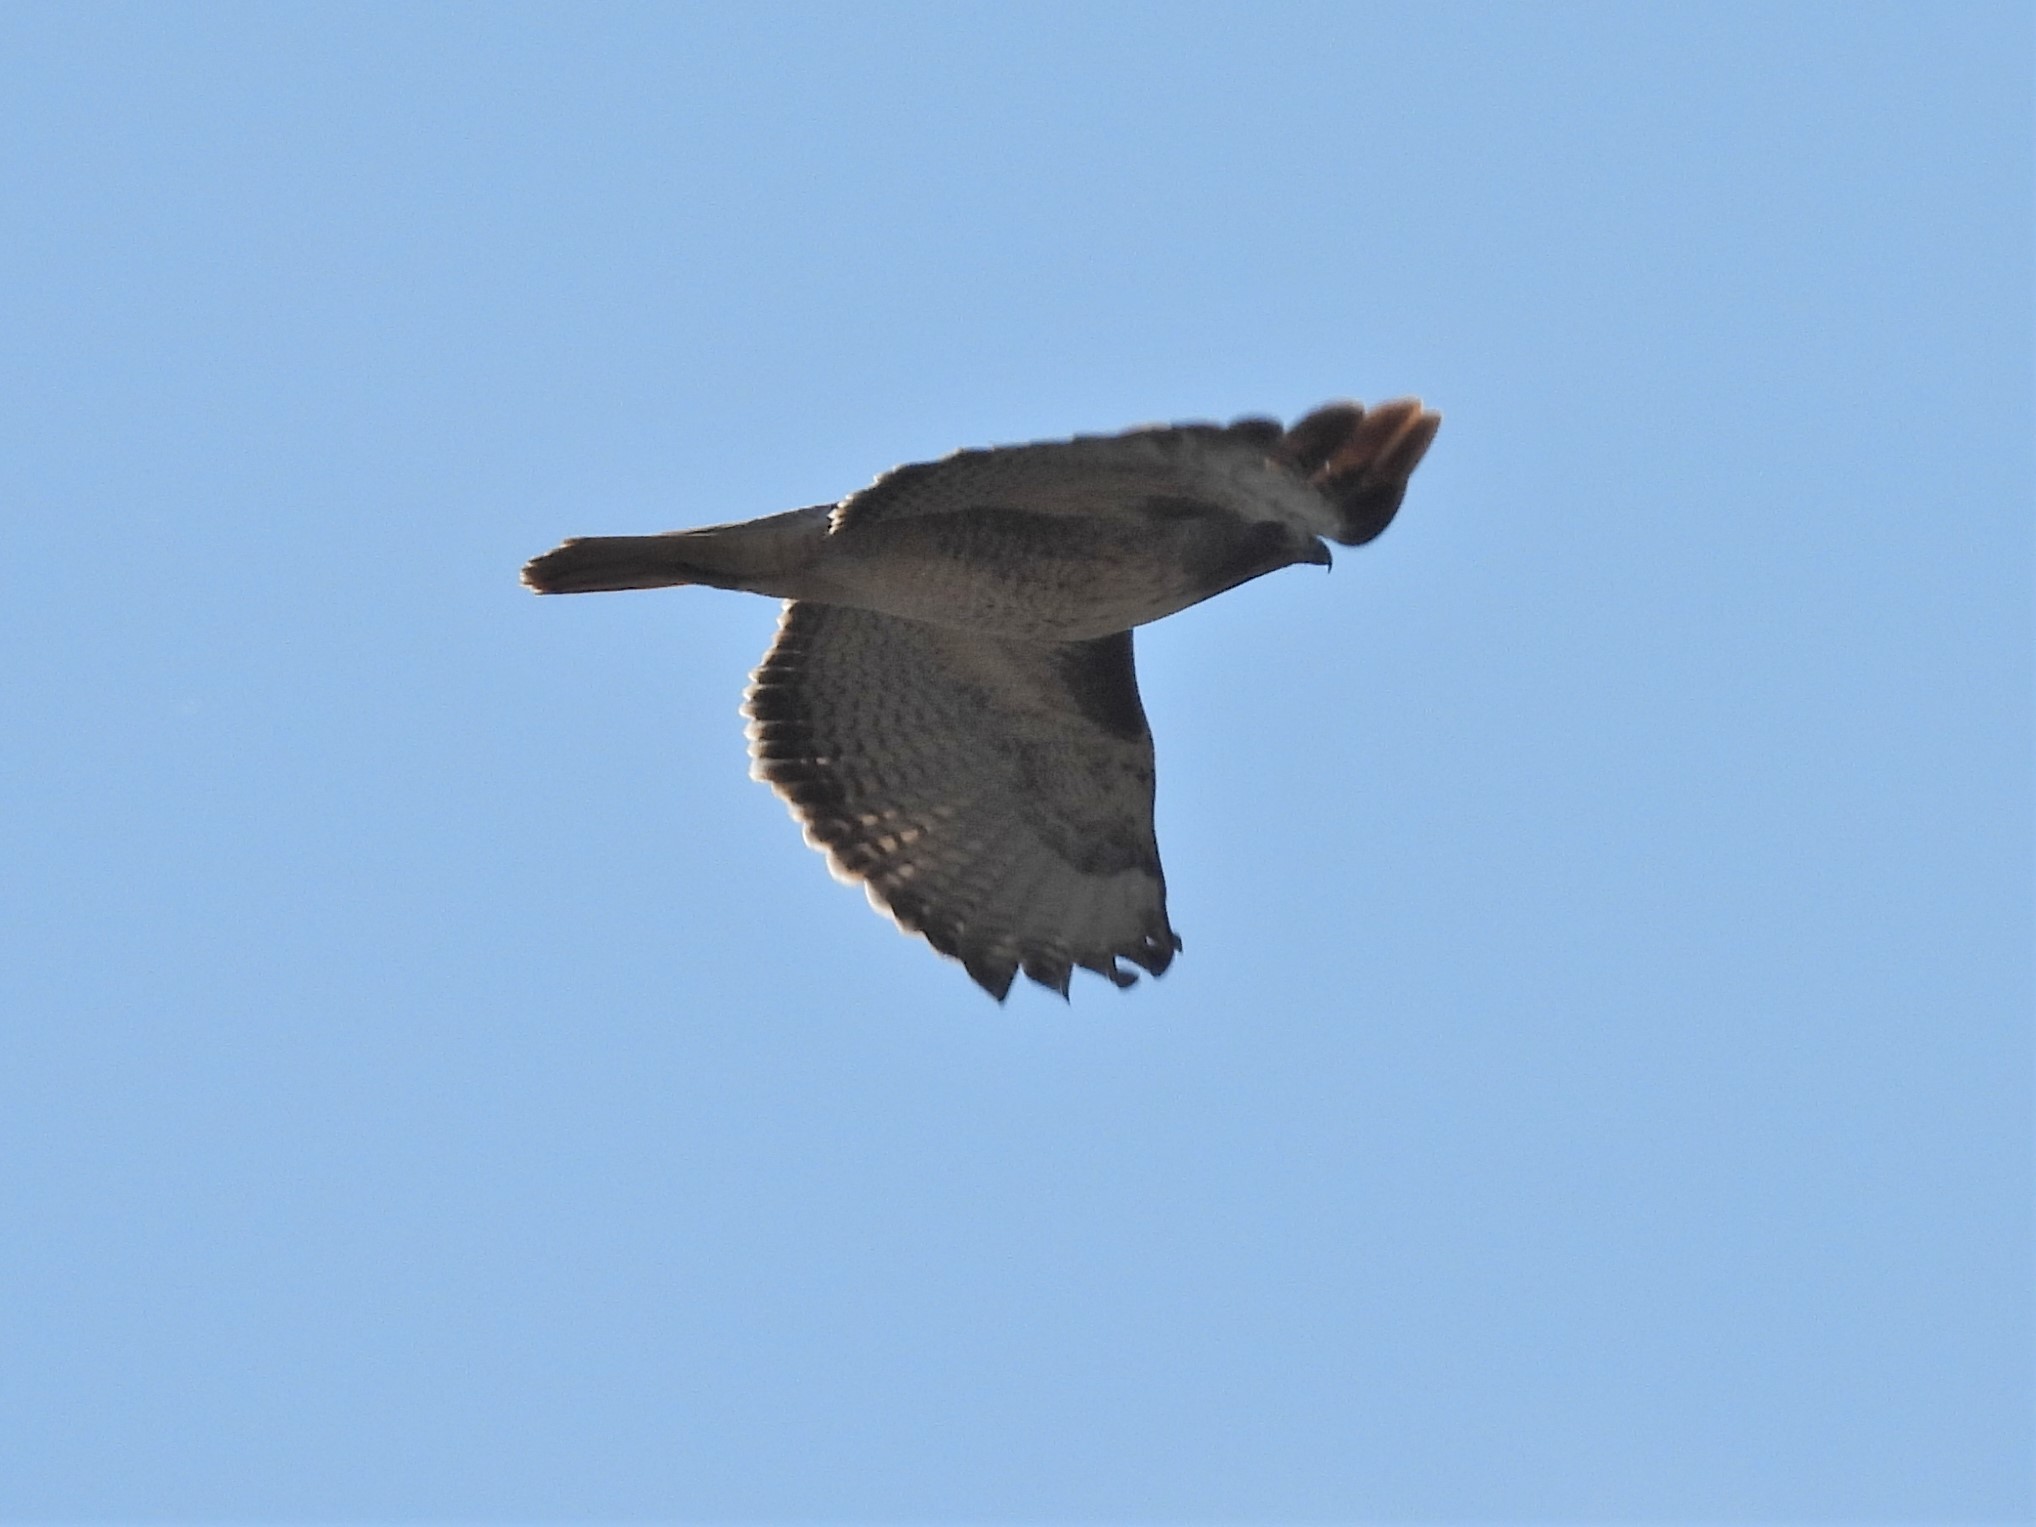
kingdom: Animalia
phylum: Chordata
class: Aves
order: Accipitriformes
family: Accipitridae
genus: Buteo
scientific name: Buteo jamaicensis
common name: Red-tailed hawk
